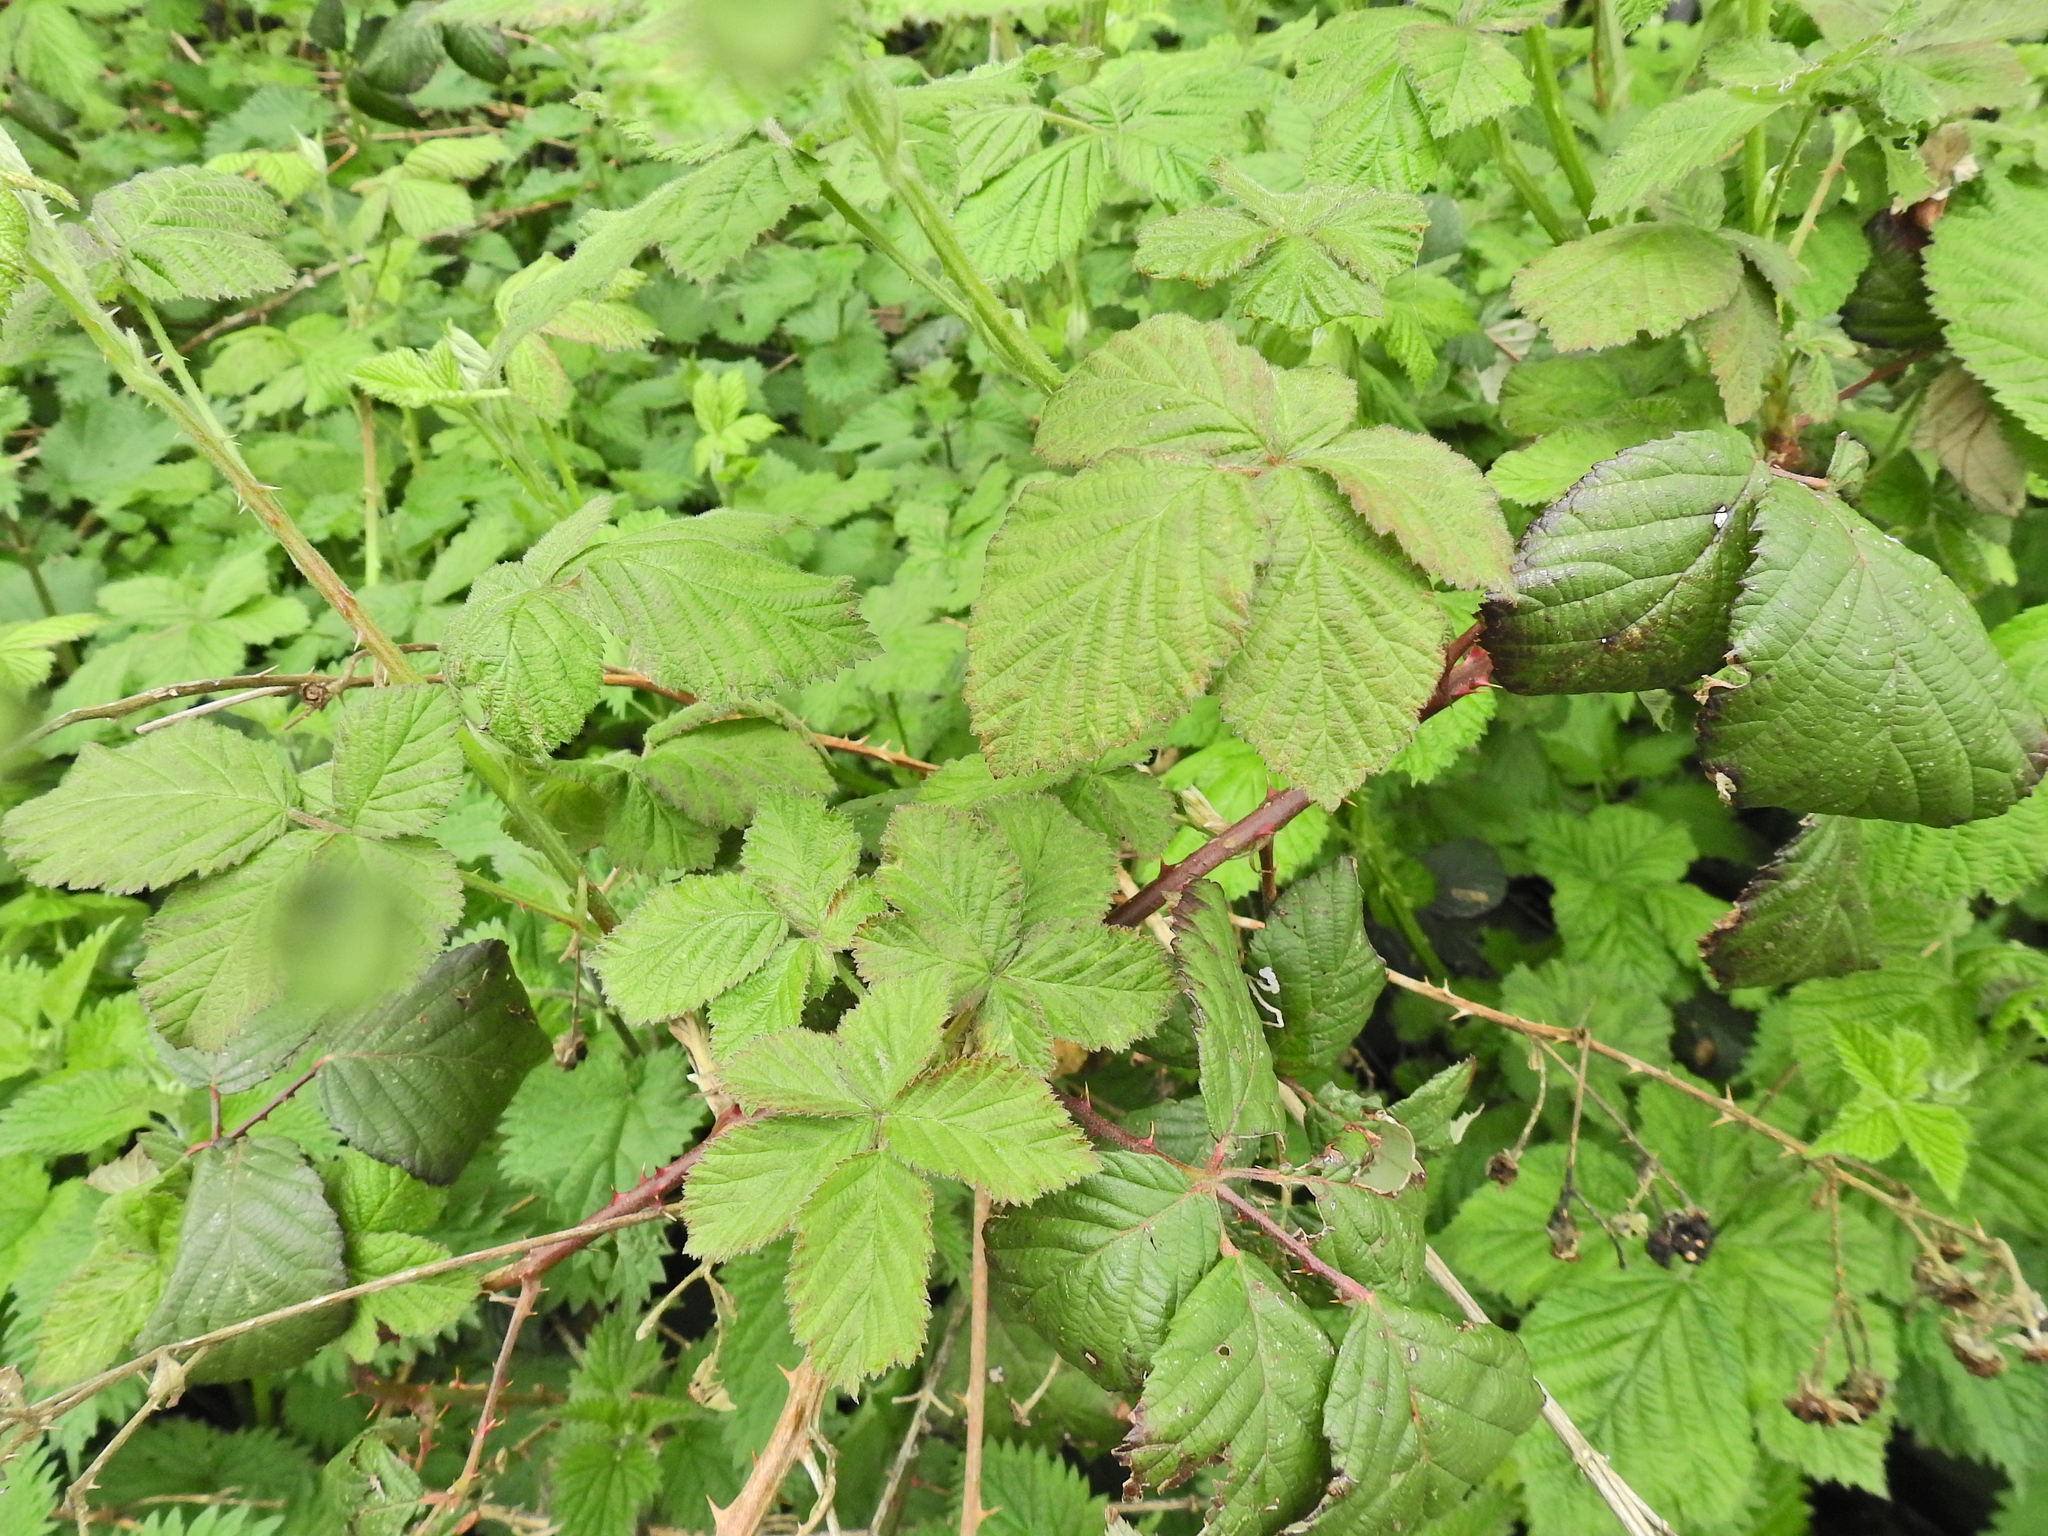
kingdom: Plantae
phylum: Tracheophyta
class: Magnoliopsida
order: Rosales
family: Rosaceae
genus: Rubus
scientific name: Rubus armeniacus
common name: Himalayan blackberry
